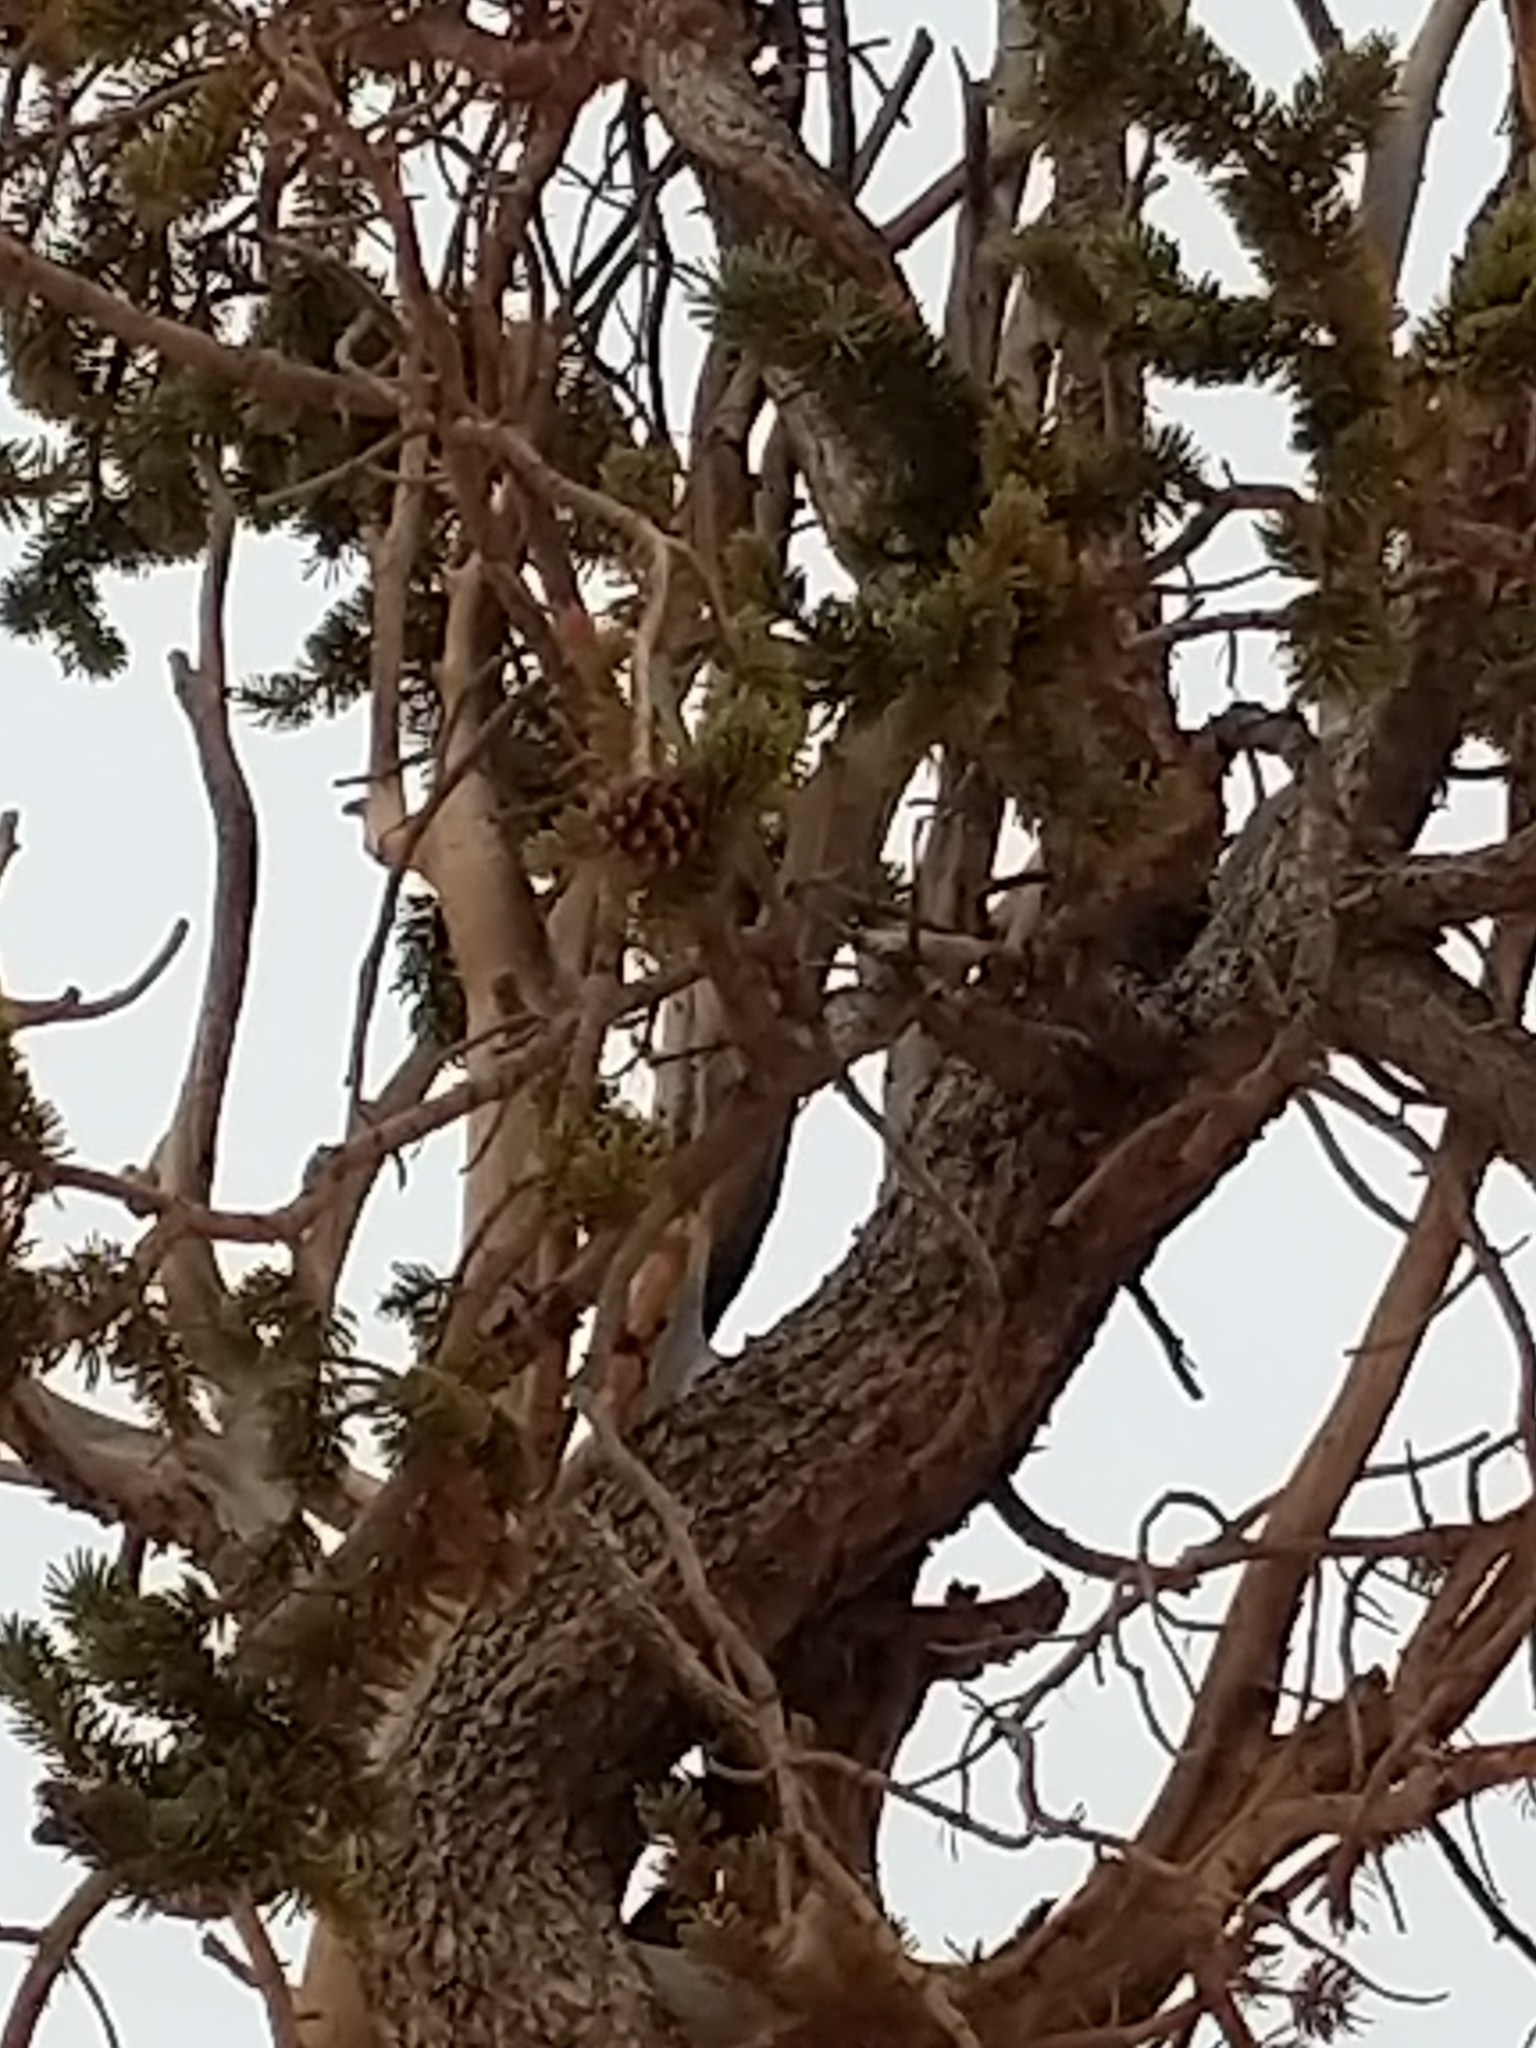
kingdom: Plantae
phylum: Tracheophyta
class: Pinopsida
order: Pinales
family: Pinaceae
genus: Pinus
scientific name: Pinus longaeva
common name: Intermountain bristlecone pine
